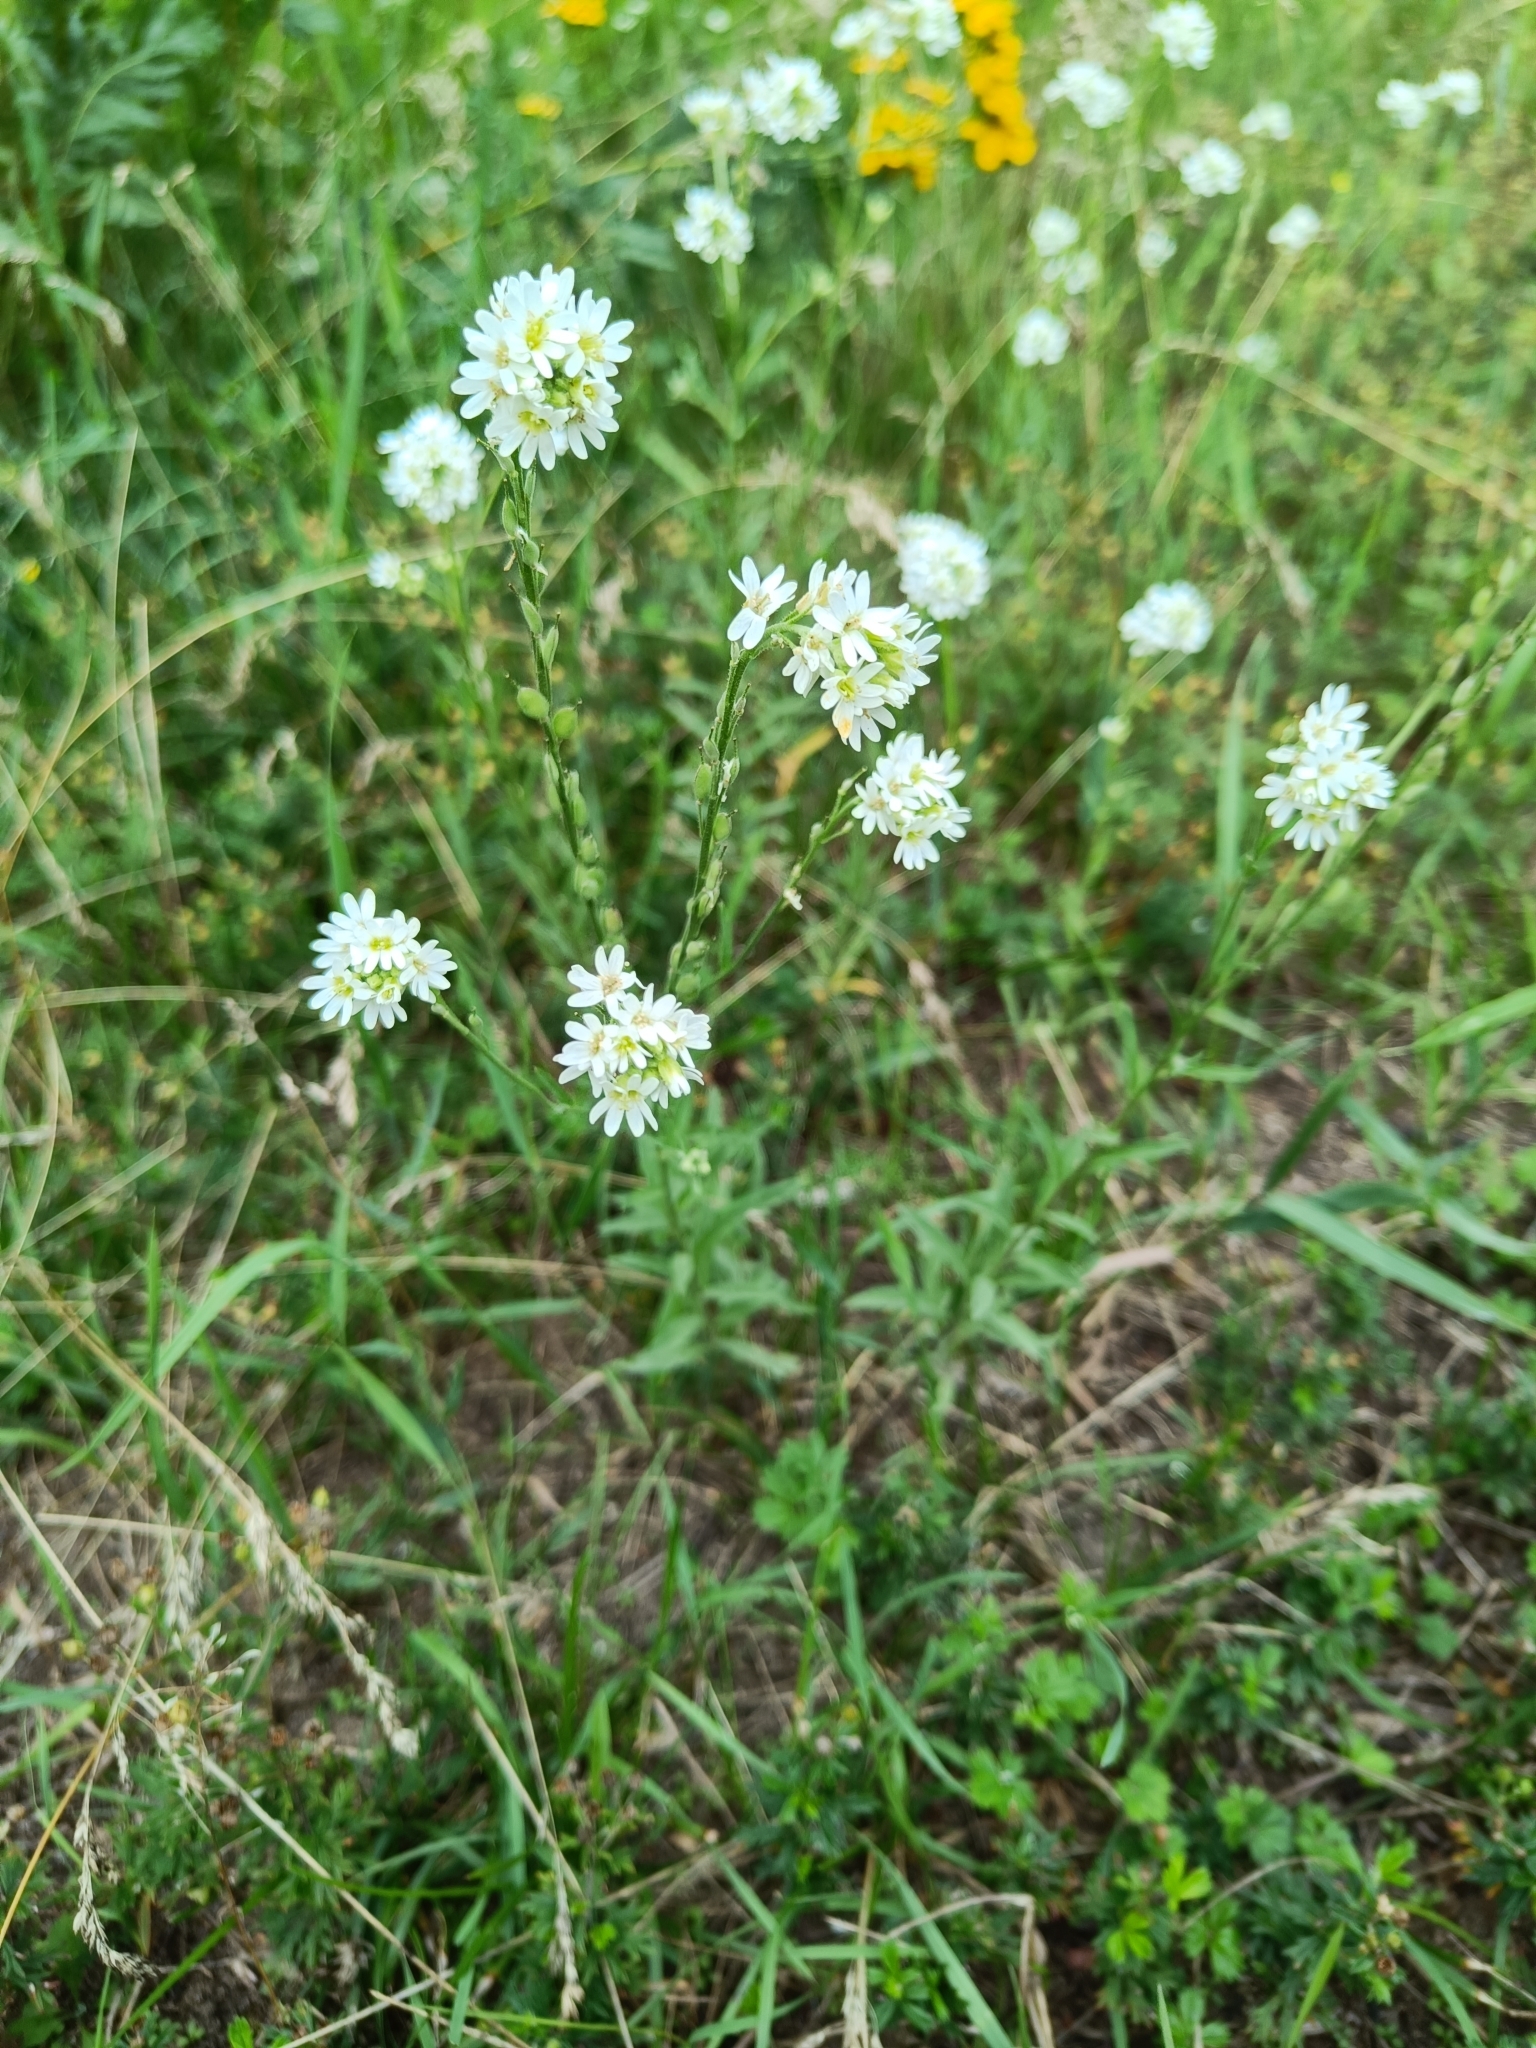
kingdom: Plantae
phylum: Tracheophyta
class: Magnoliopsida
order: Brassicales
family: Brassicaceae
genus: Berteroa
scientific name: Berteroa incana
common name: Hoary alison
